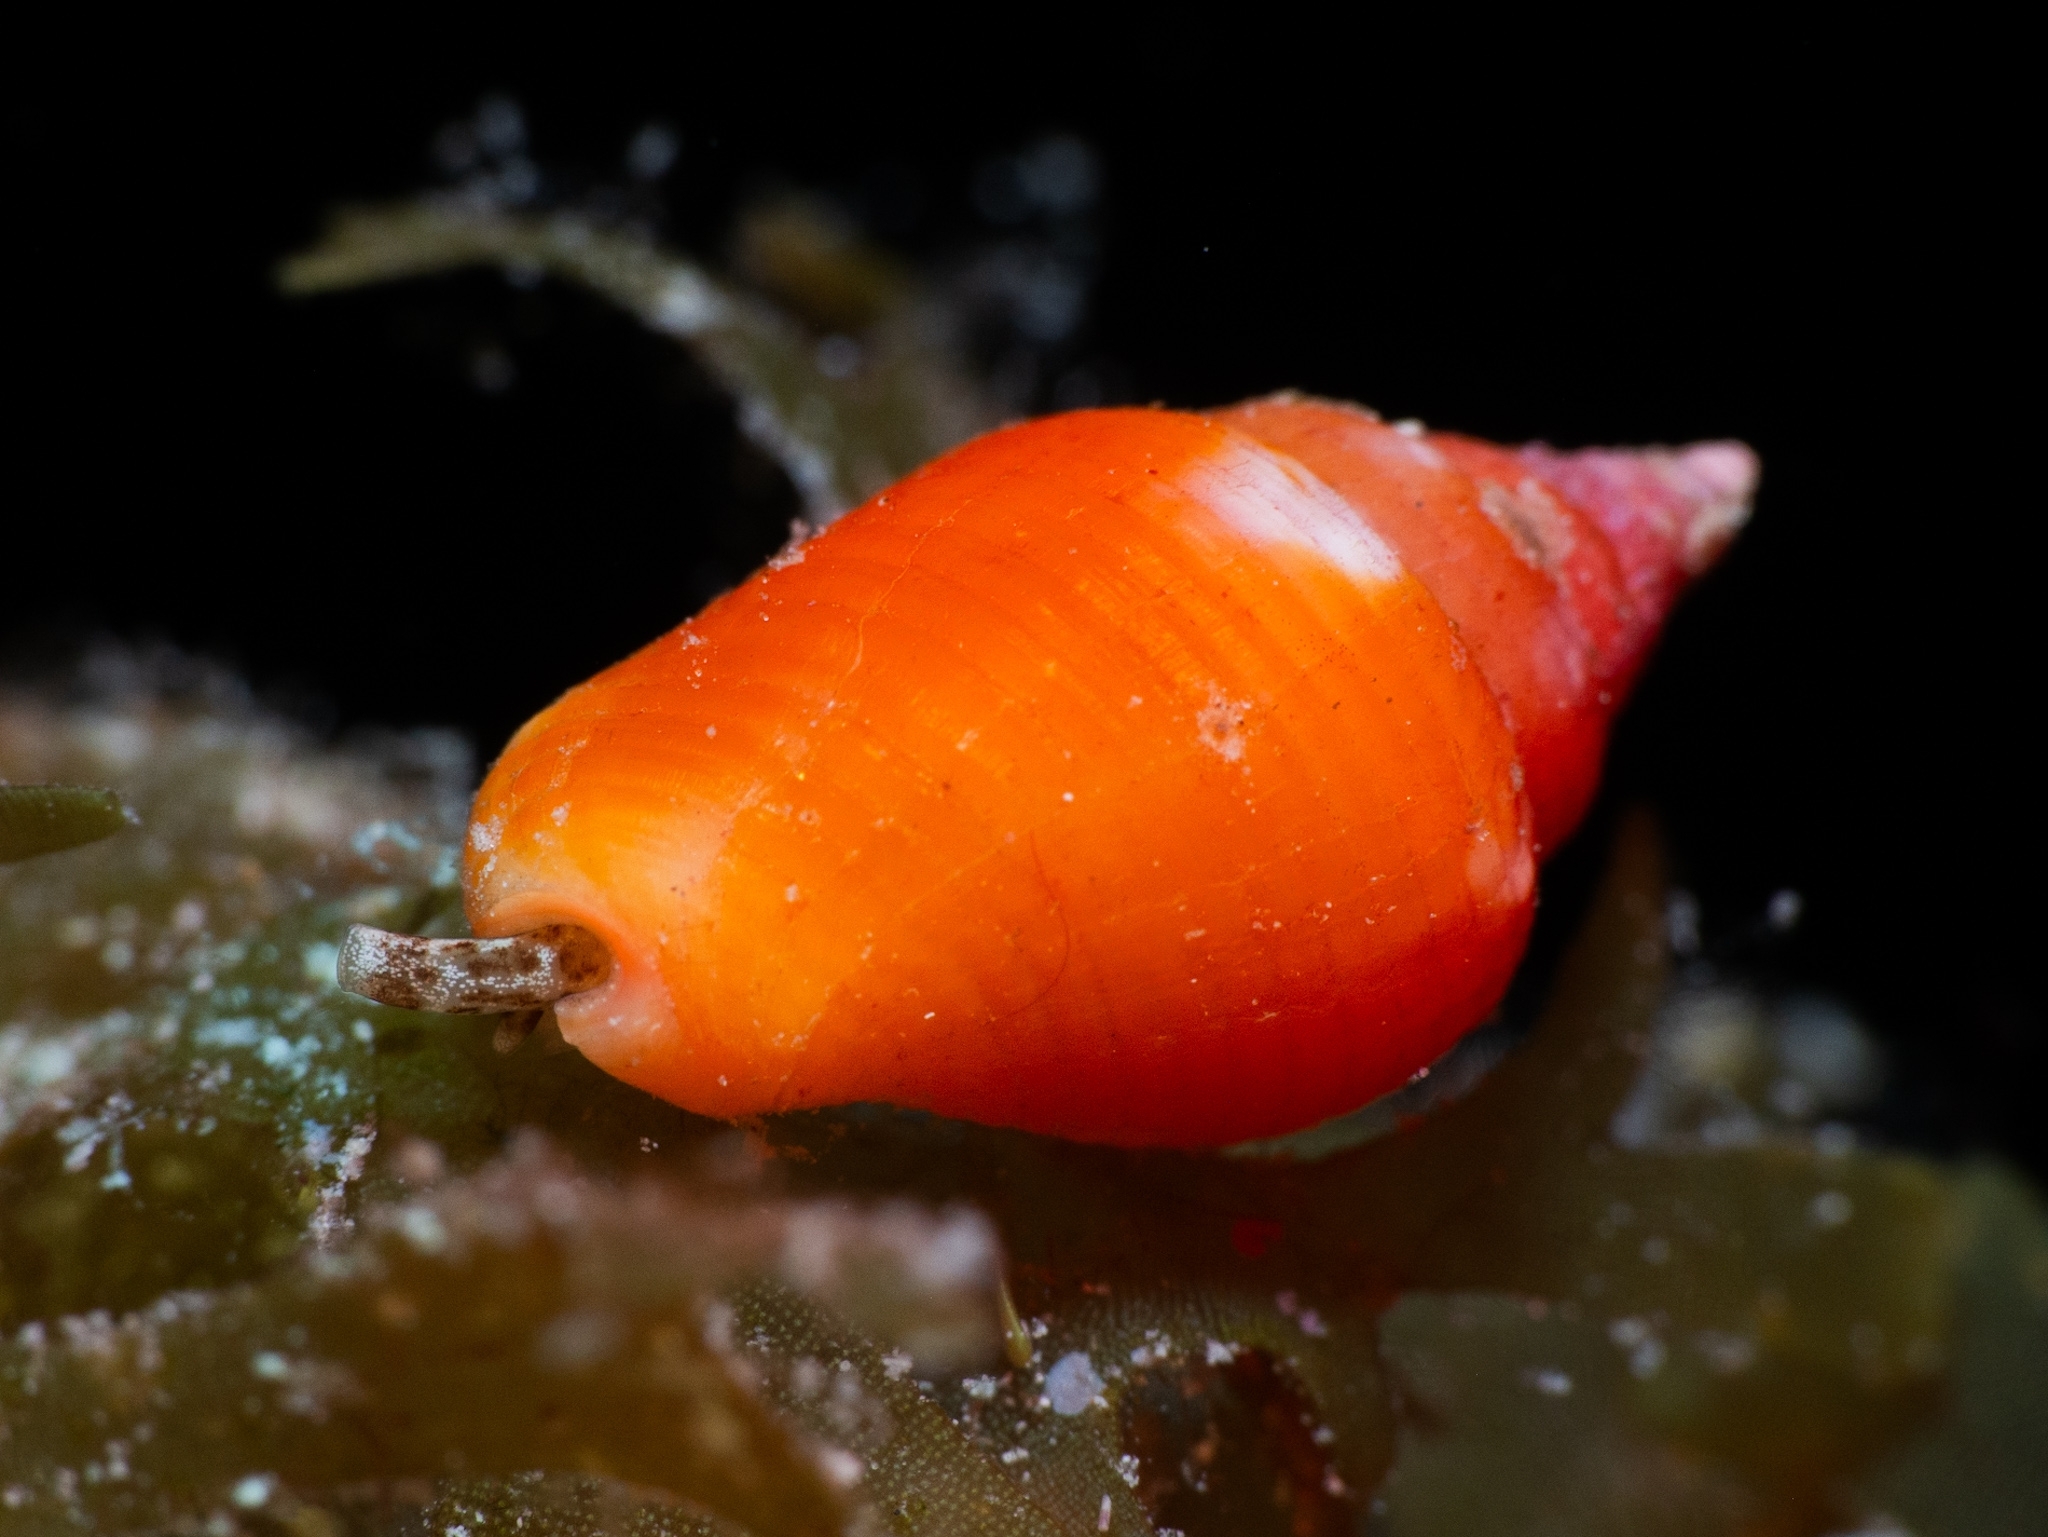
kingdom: Animalia
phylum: Mollusca
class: Gastropoda
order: Neogastropoda
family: Columbellidae
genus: Columbella
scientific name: Columbella mercatoria
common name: West indian dovesnail
